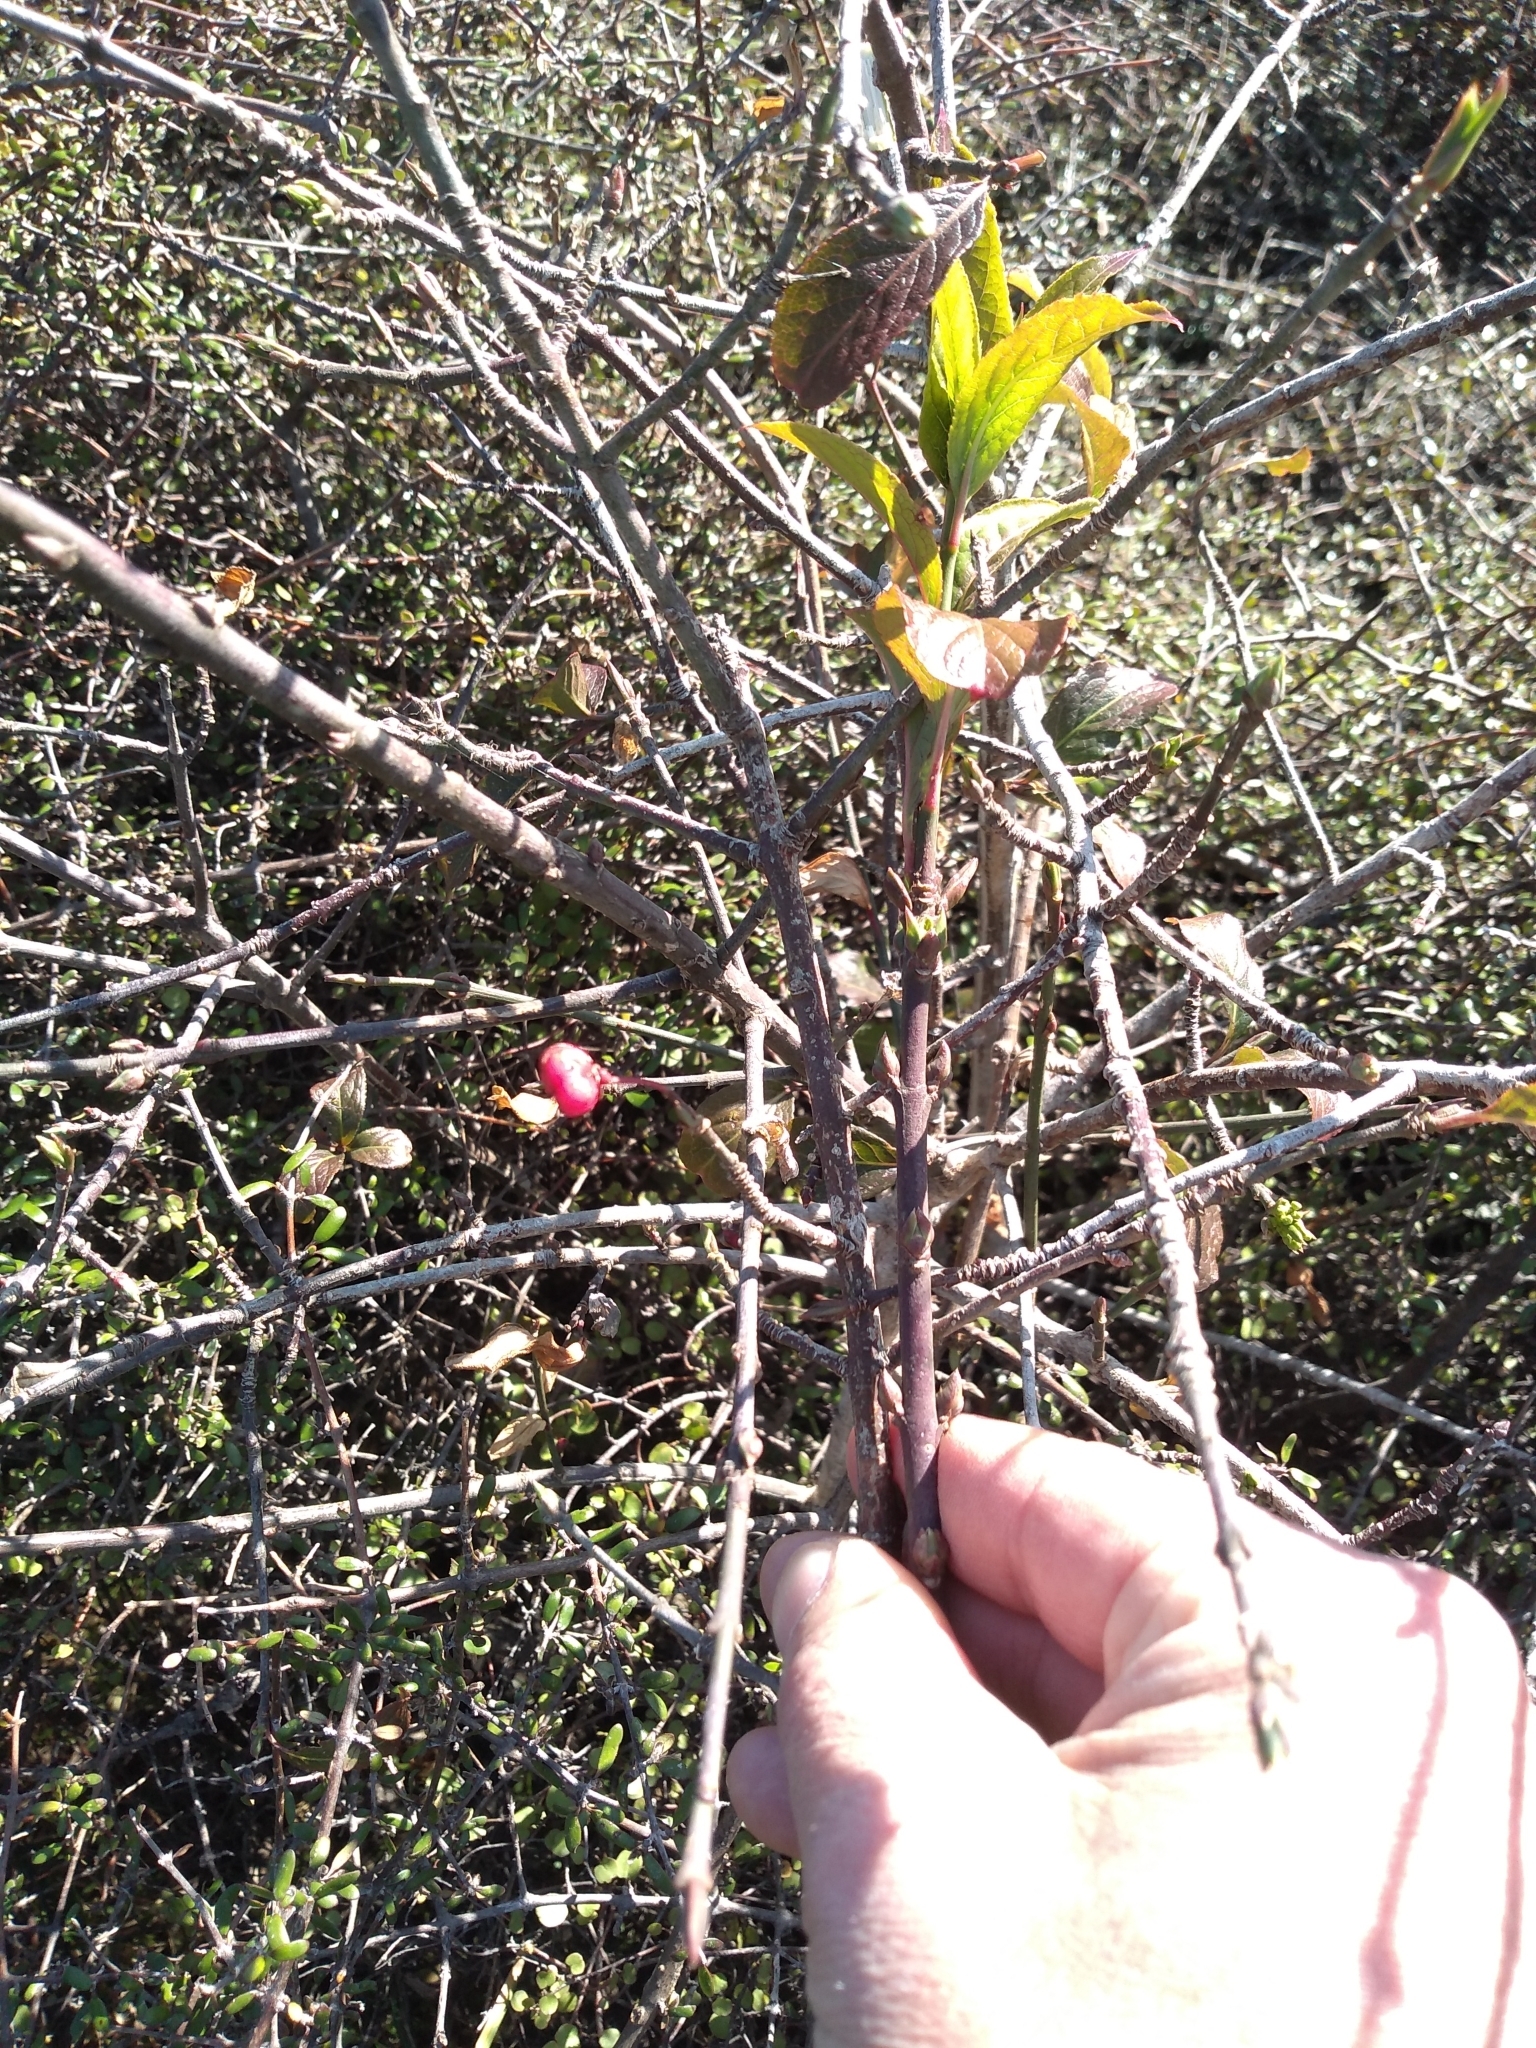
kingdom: Plantae
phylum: Tracheophyta
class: Magnoliopsida
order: Celastrales
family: Celastraceae
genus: Euonymus
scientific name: Euonymus europaeus
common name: Spindle
